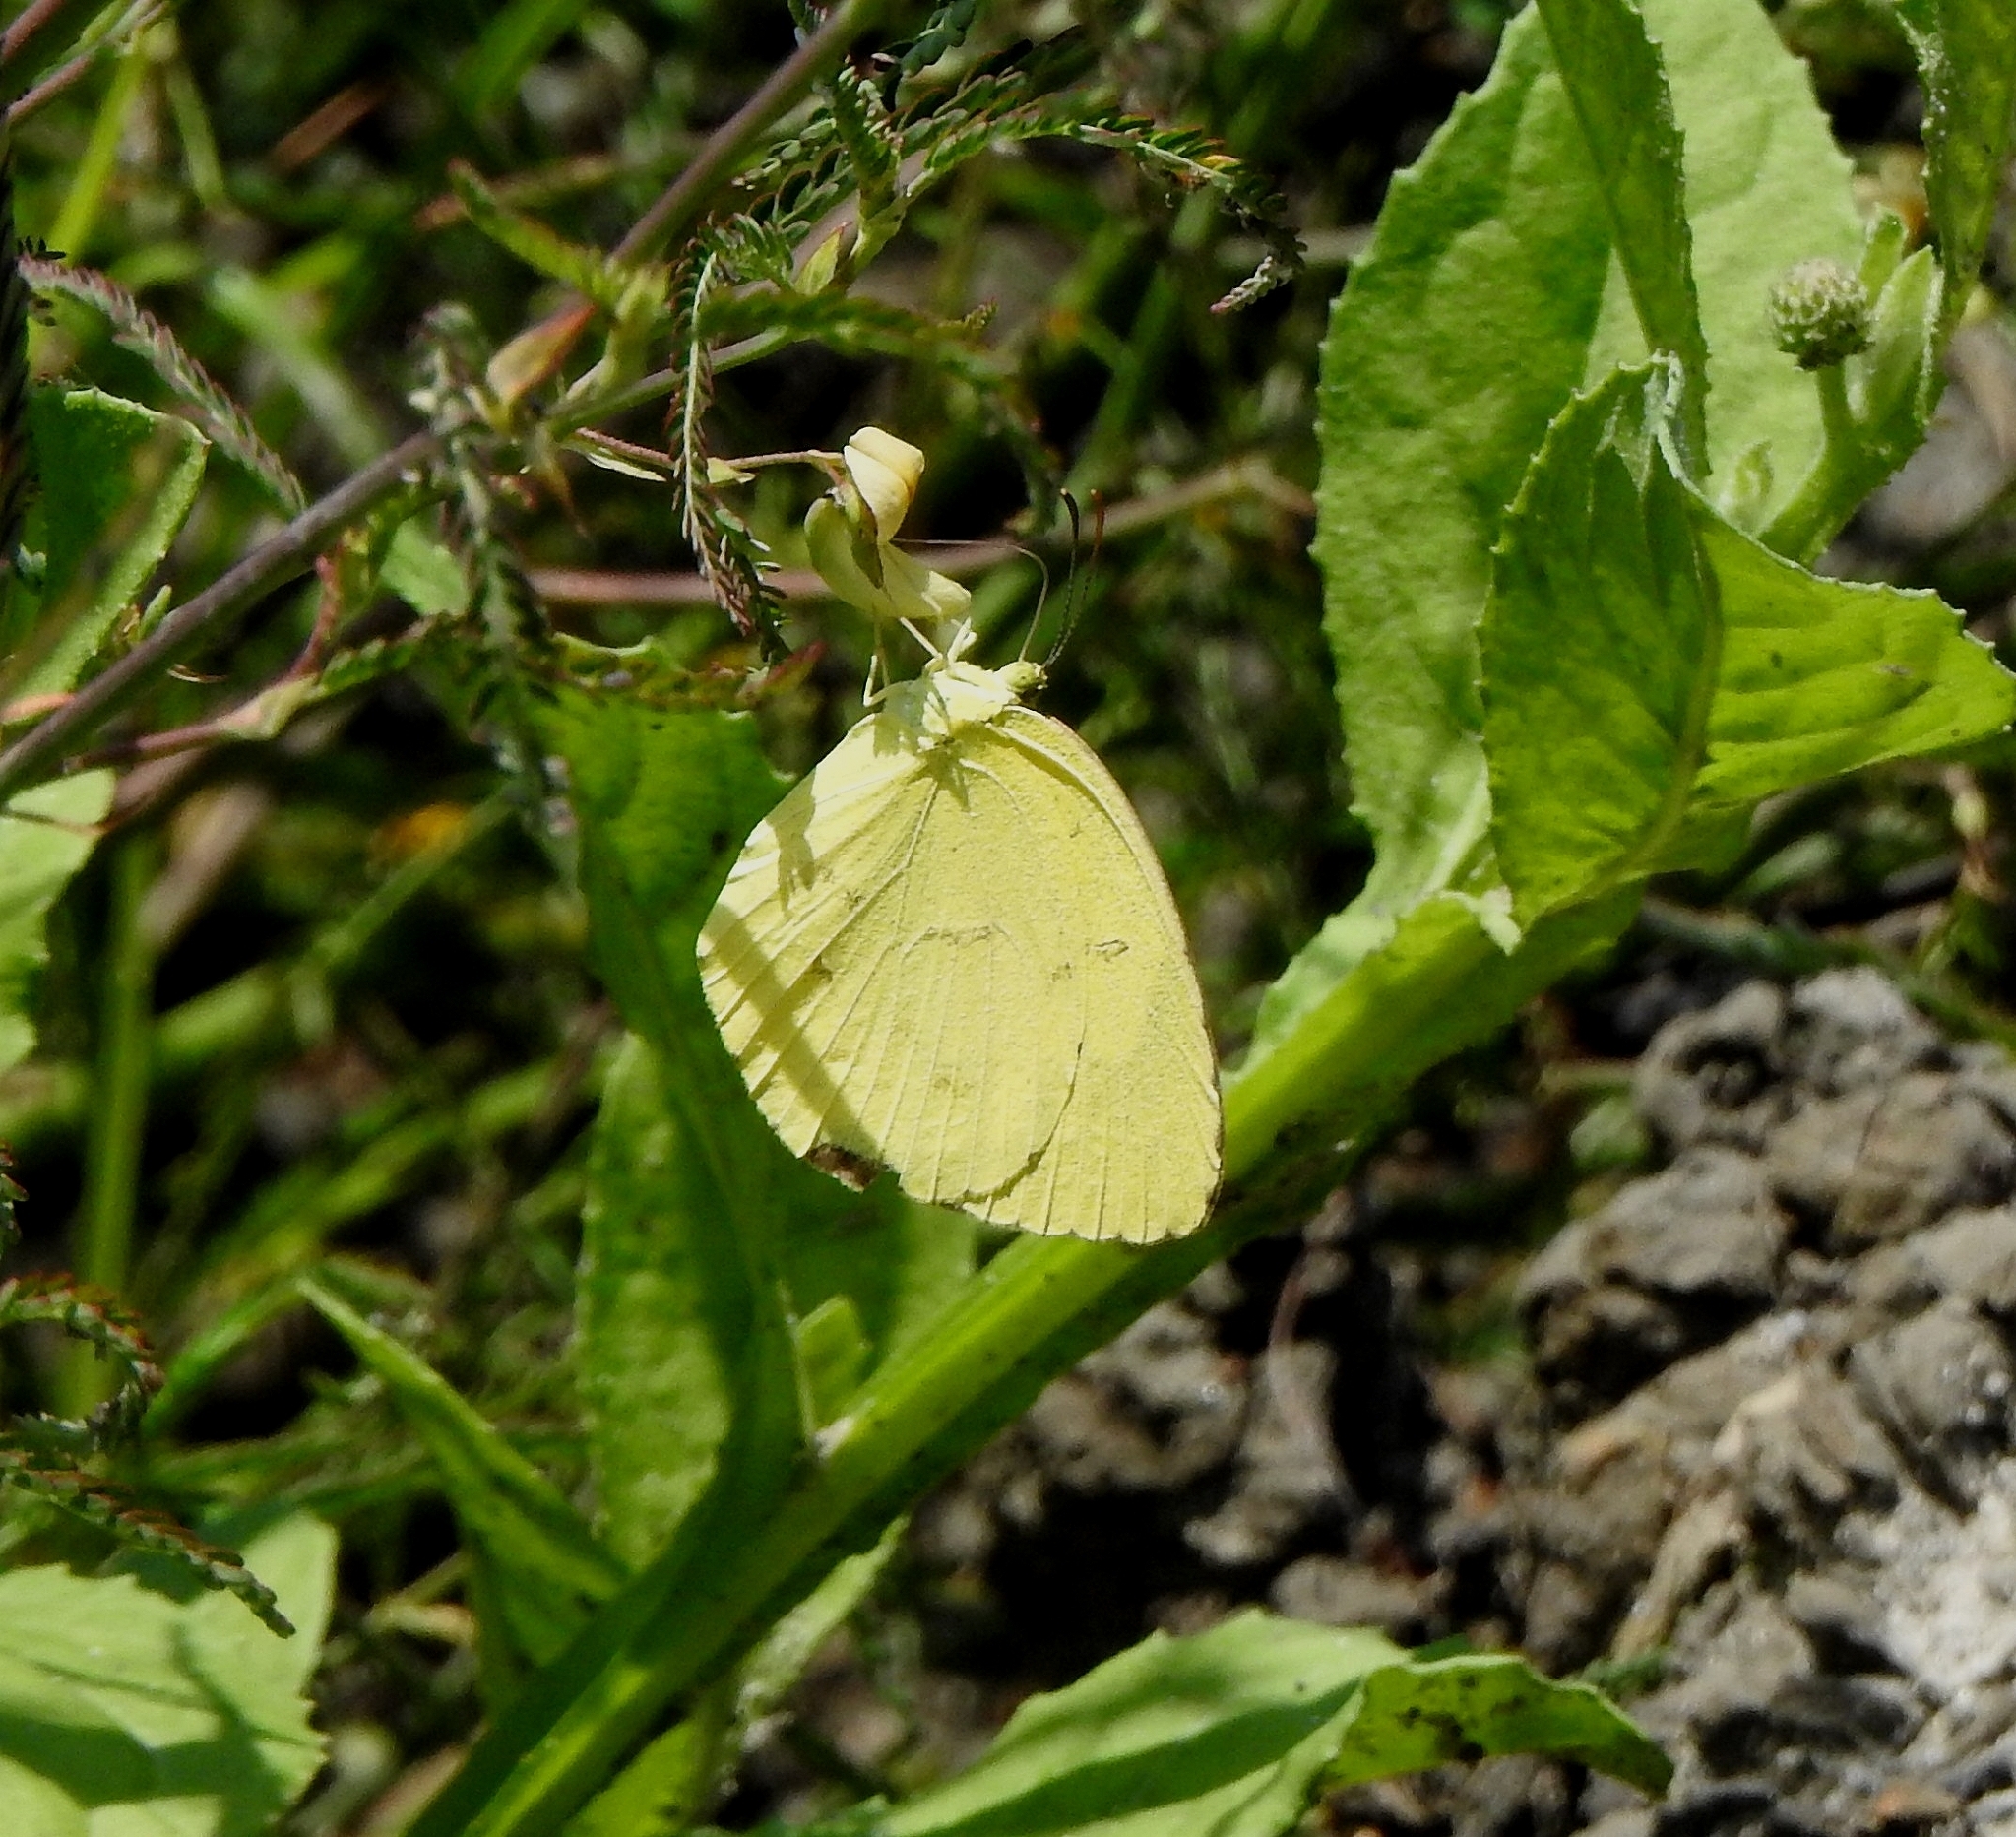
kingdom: Animalia
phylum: Arthropoda
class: Insecta
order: Lepidoptera
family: Pieridae
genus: Eurema
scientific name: Eurema hecabe
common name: Pale grass yellow
